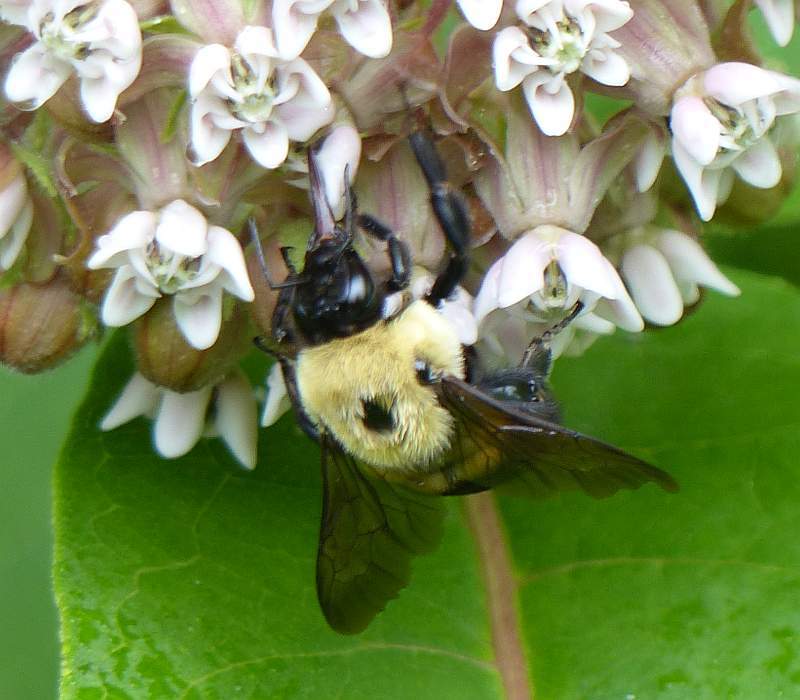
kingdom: Animalia
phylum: Arthropoda
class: Insecta
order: Hymenoptera
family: Apidae
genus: Bombus
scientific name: Bombus griseocollis
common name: Brown-belted bumble bee
